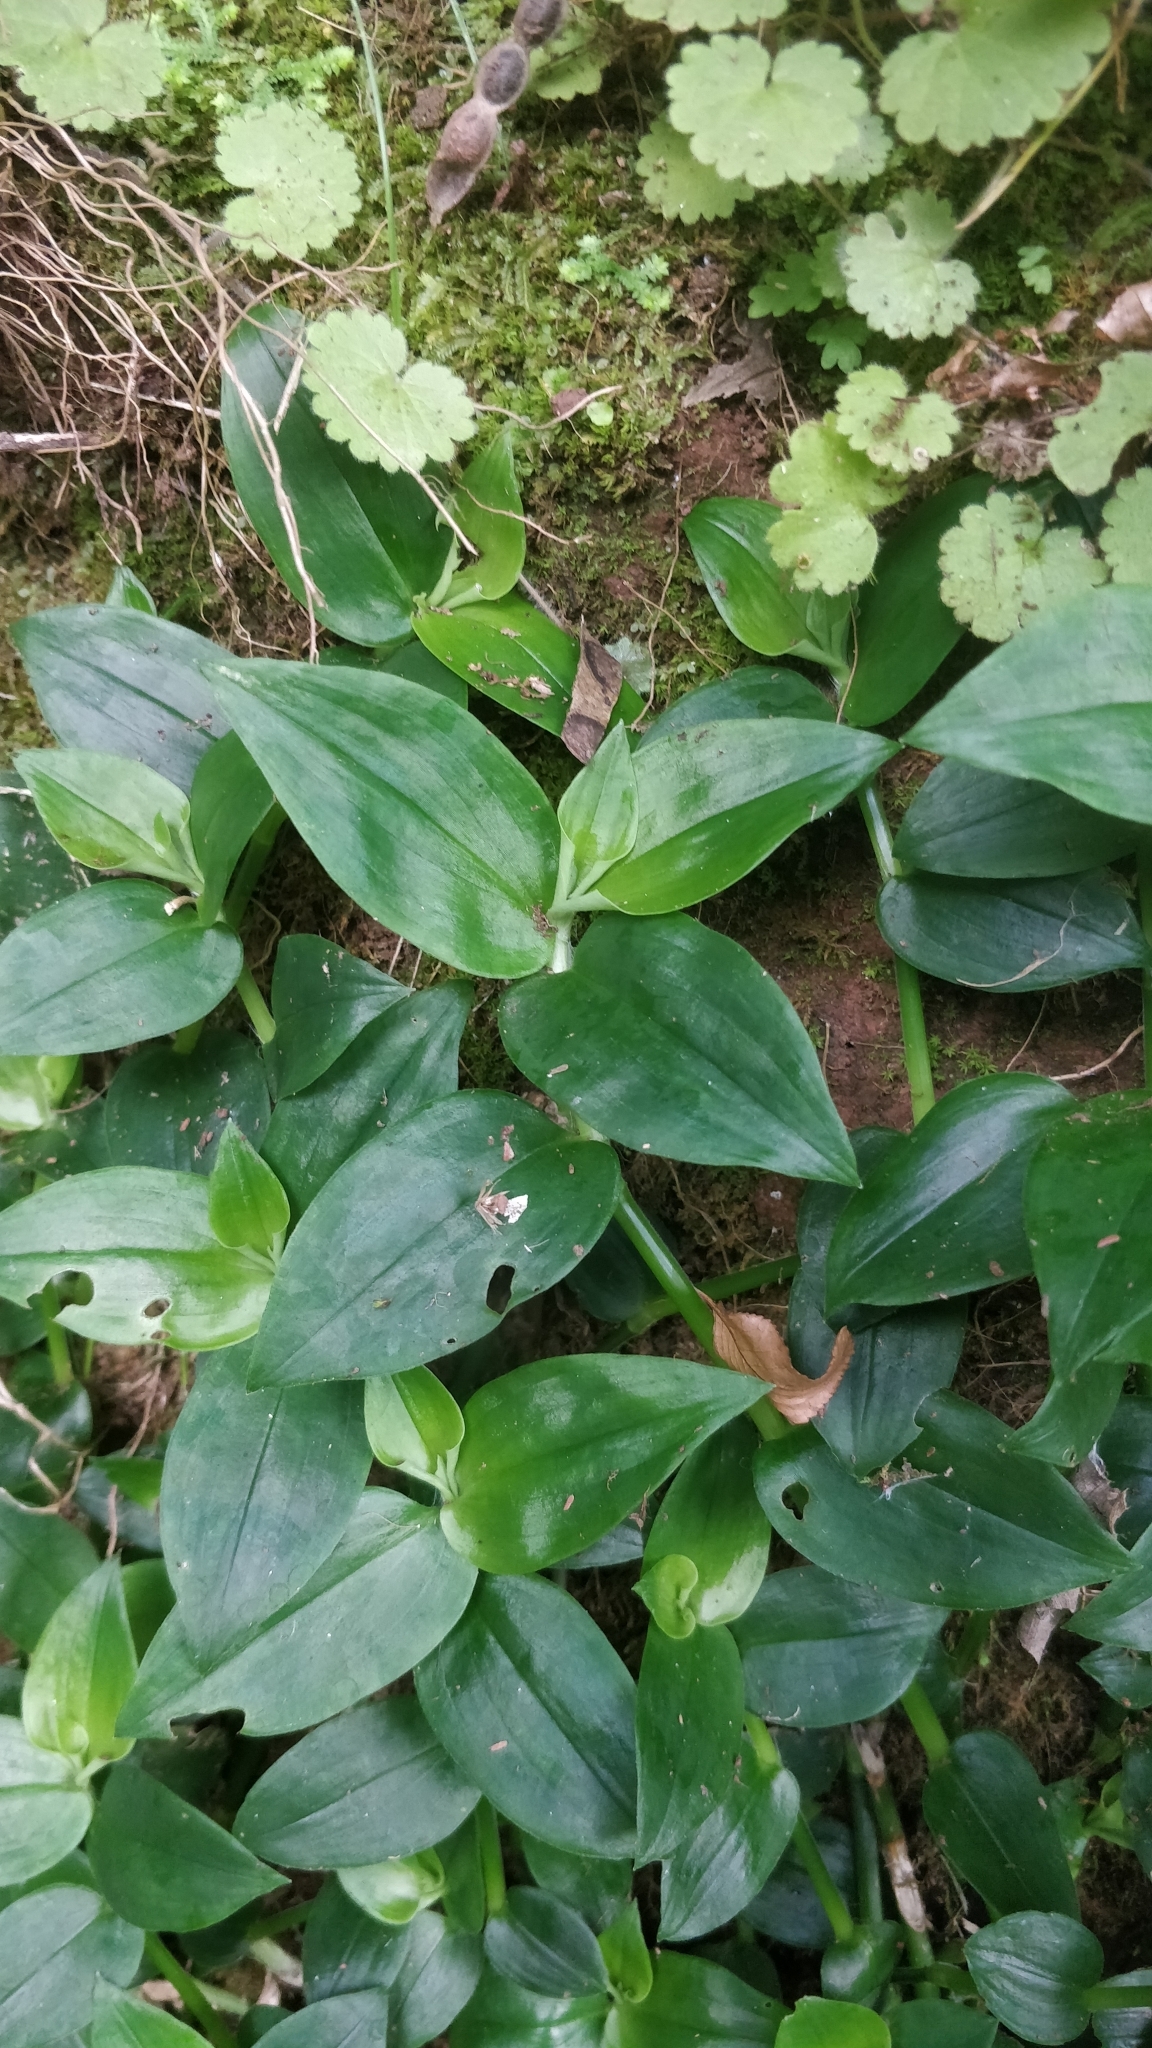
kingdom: Plantae
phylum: Tracheophyta
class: Liliopsida
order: Commelinales
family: Commelinaceae
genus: Tradescantia
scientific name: Tradescantia fluminensis
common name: Wandering-jew
